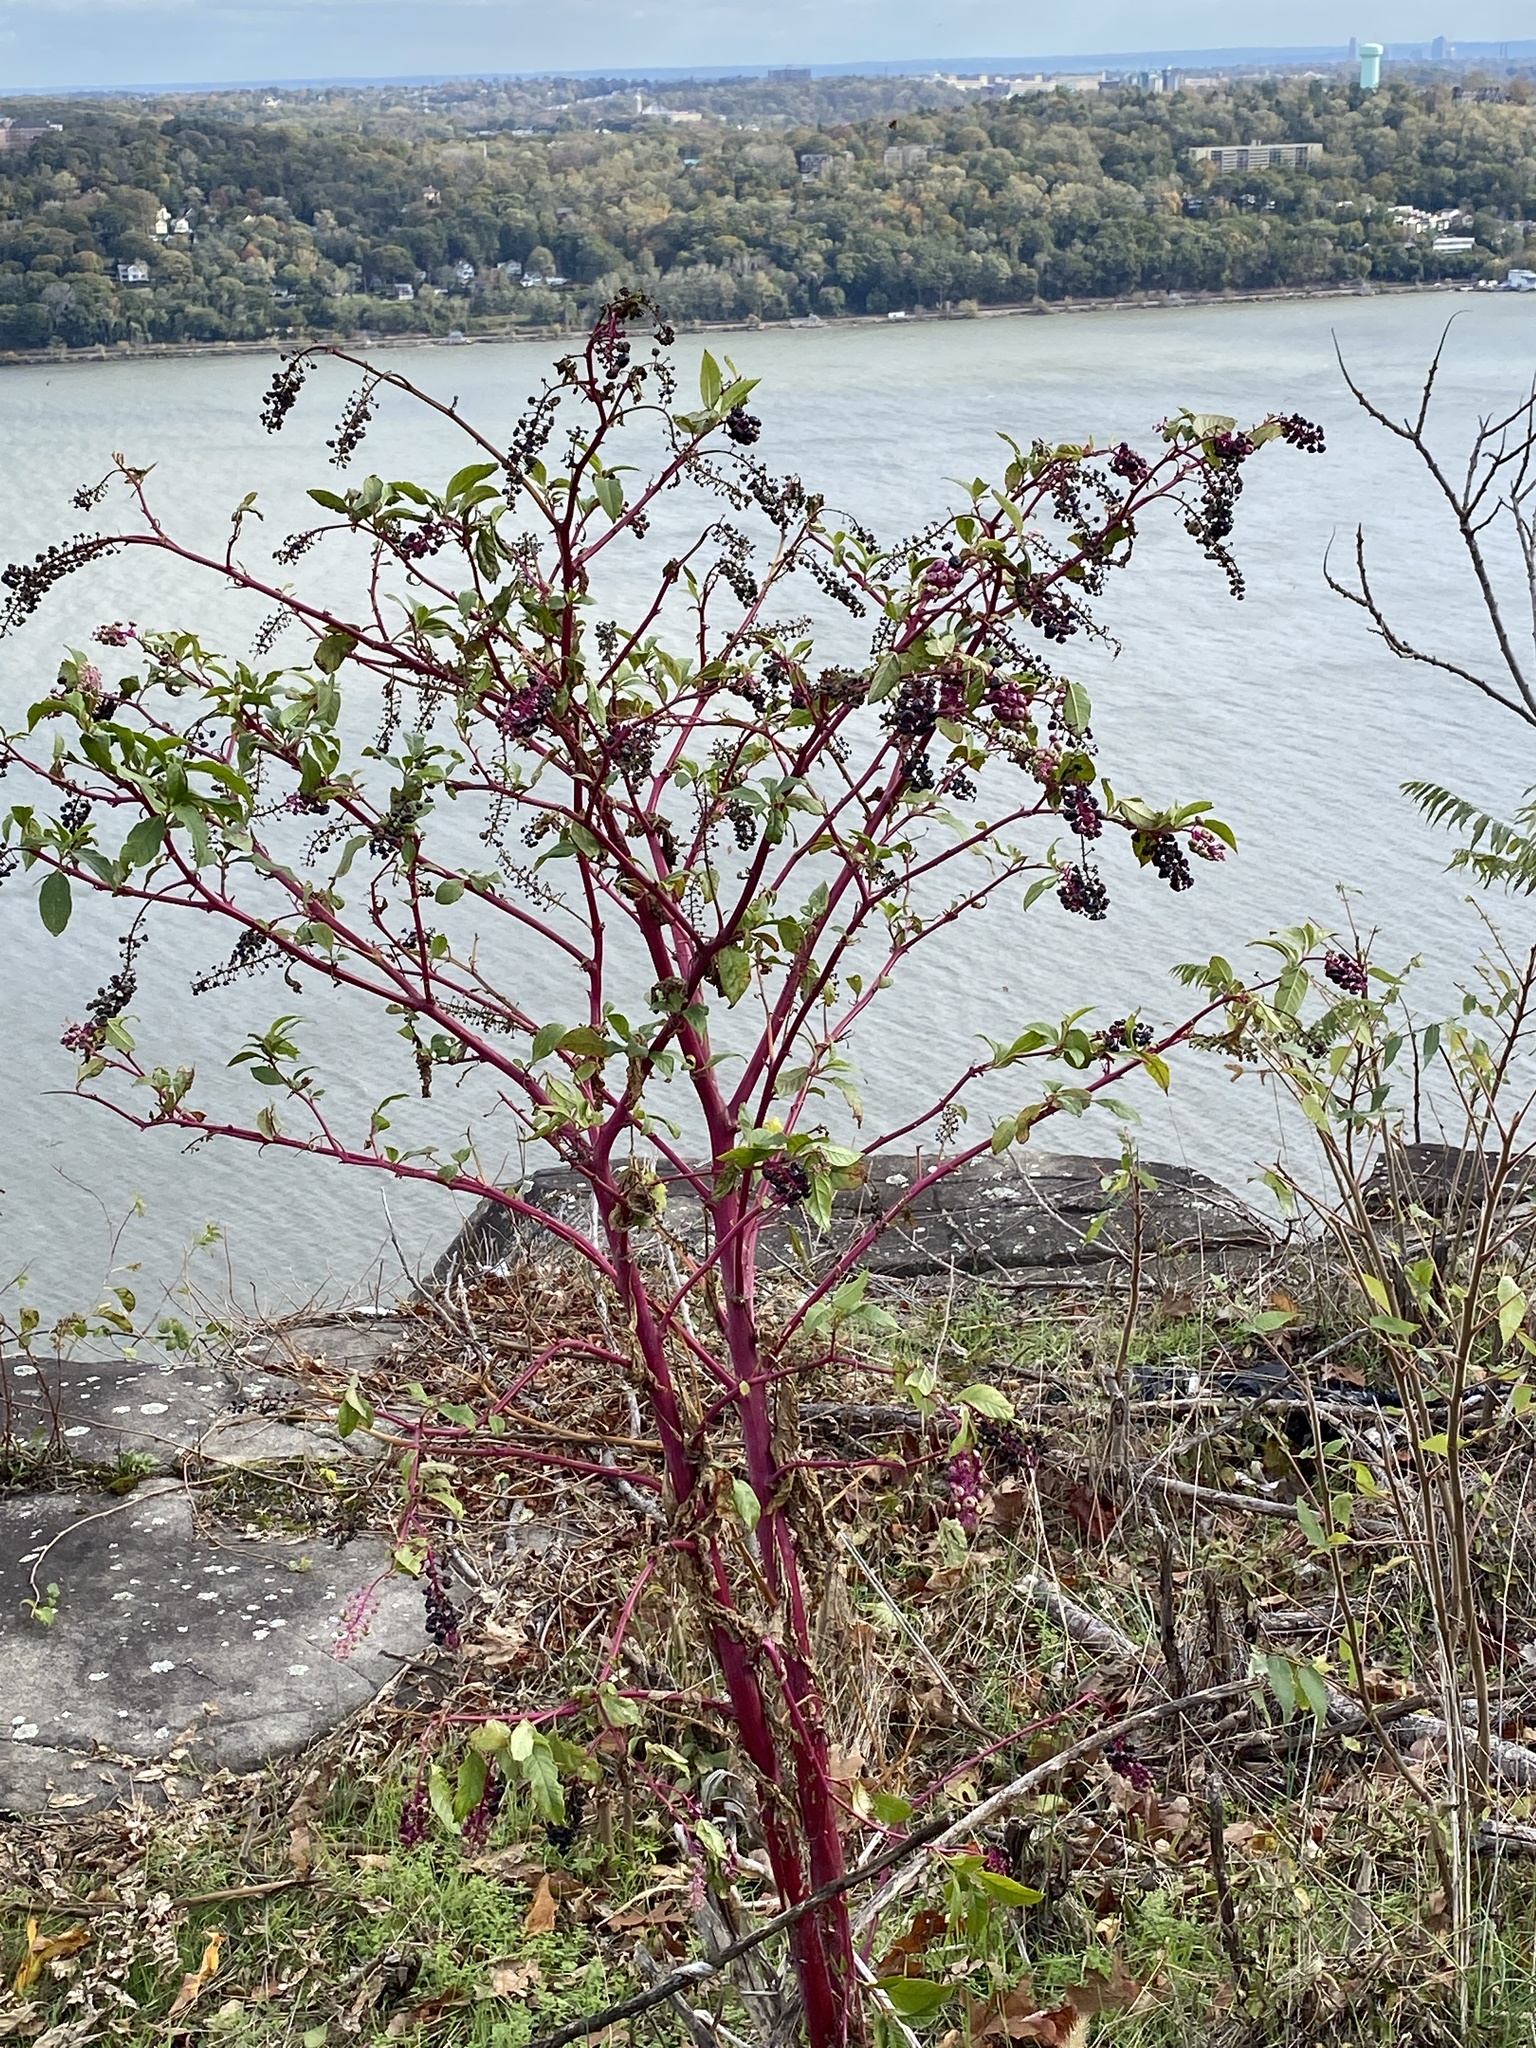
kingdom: Plantae
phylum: Tracheophyta
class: Magnoliopsida
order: Caryophyllales
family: Phytolaccaceae
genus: Phytolacca
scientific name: Phytolacca americana
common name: American pokeweed
